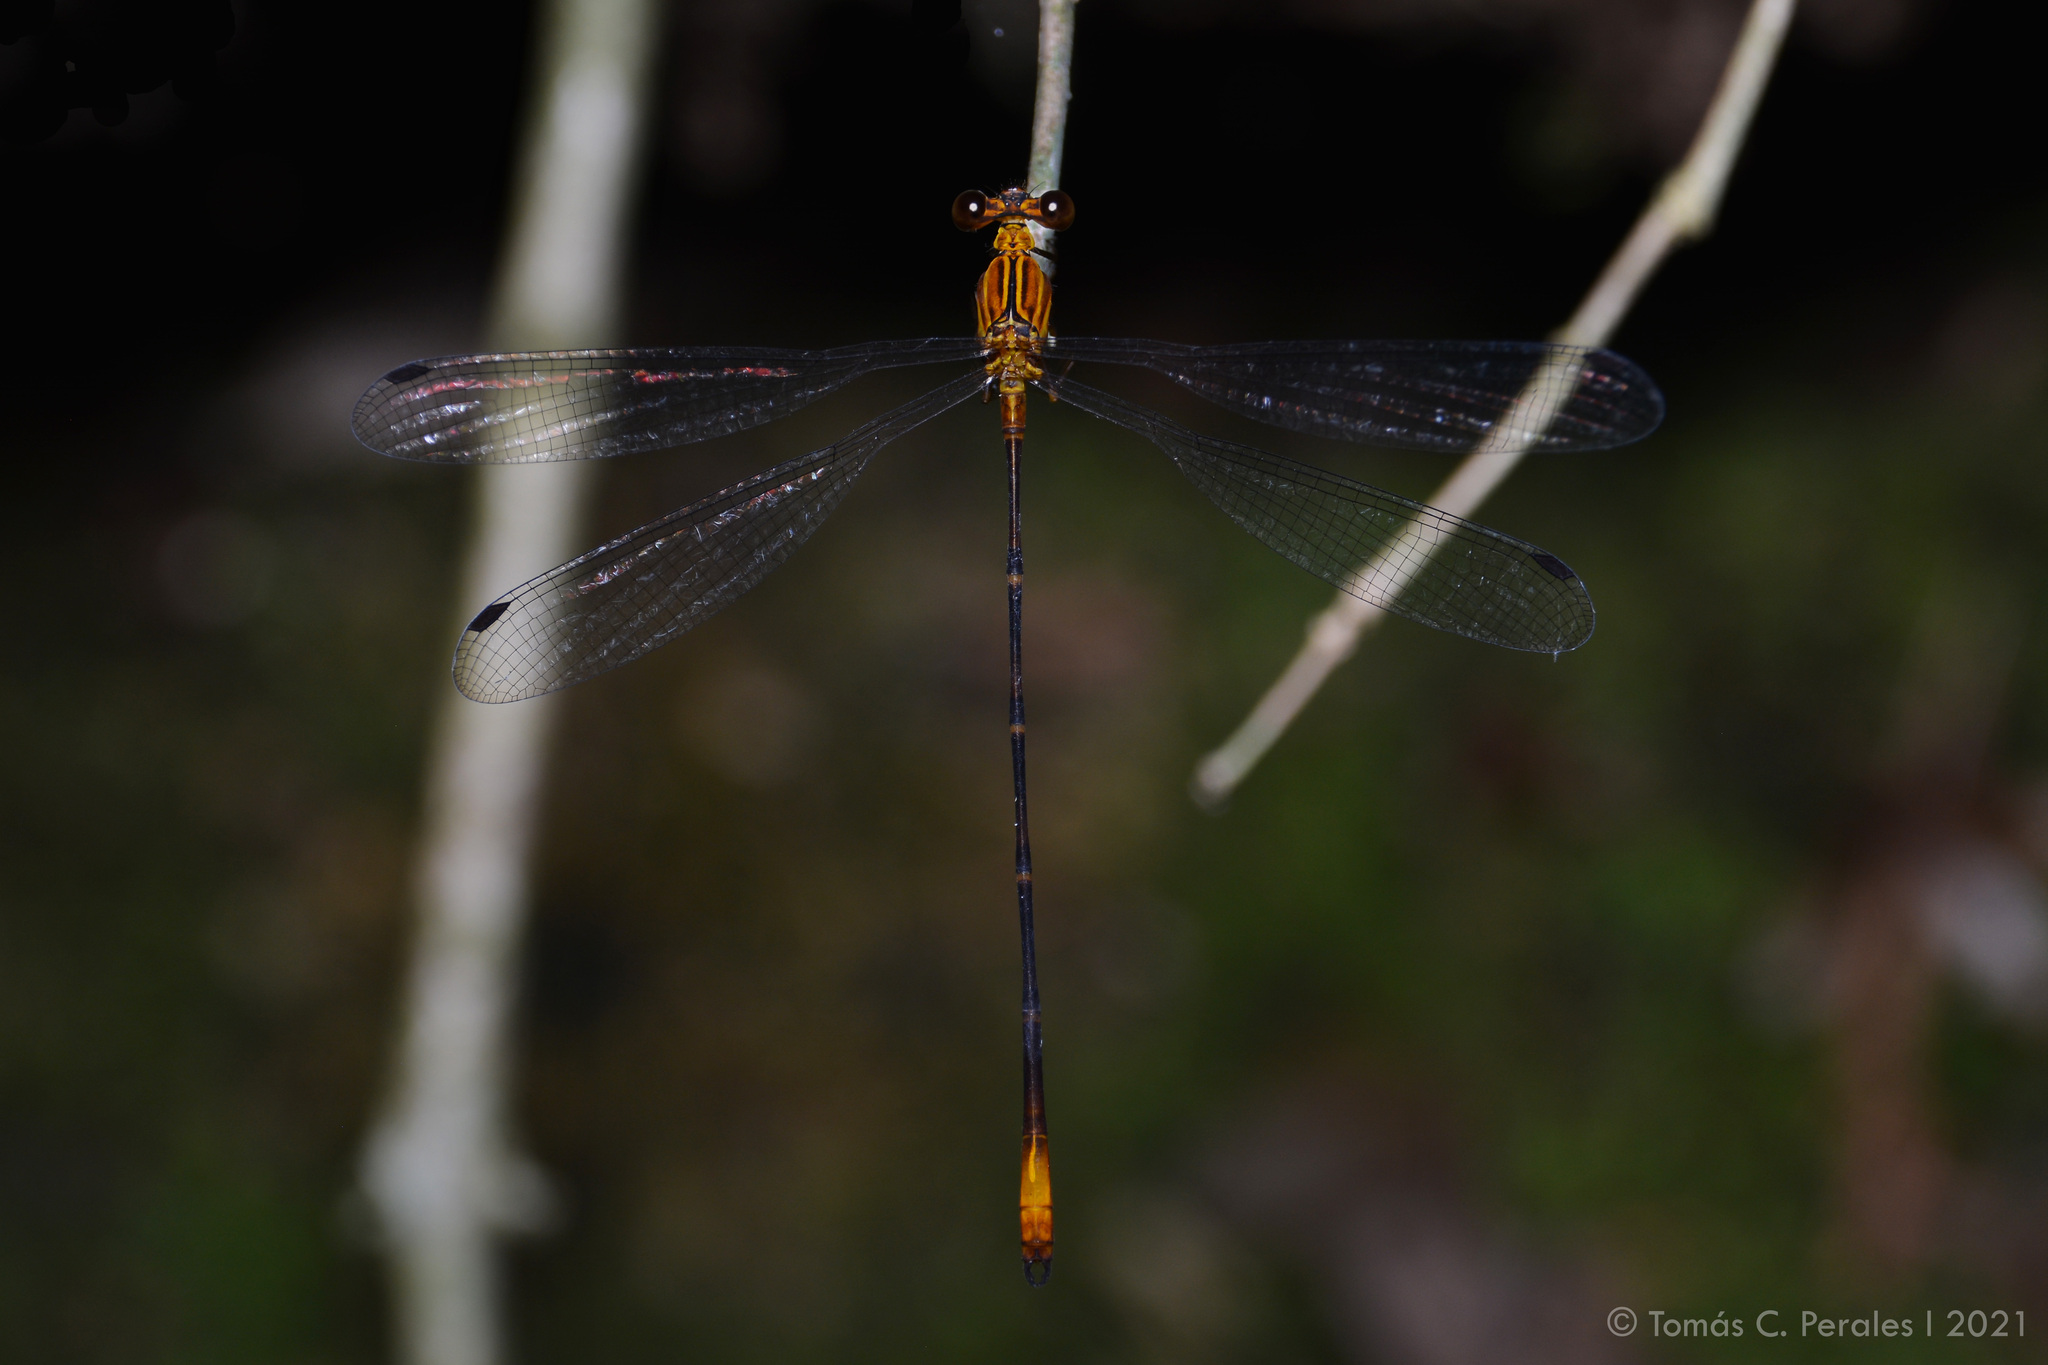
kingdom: Animalia
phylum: Arthropoda
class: Insecta
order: Odonata
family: Heteragrionidae
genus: Heteragrion
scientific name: Heteragrion aurantiacum
